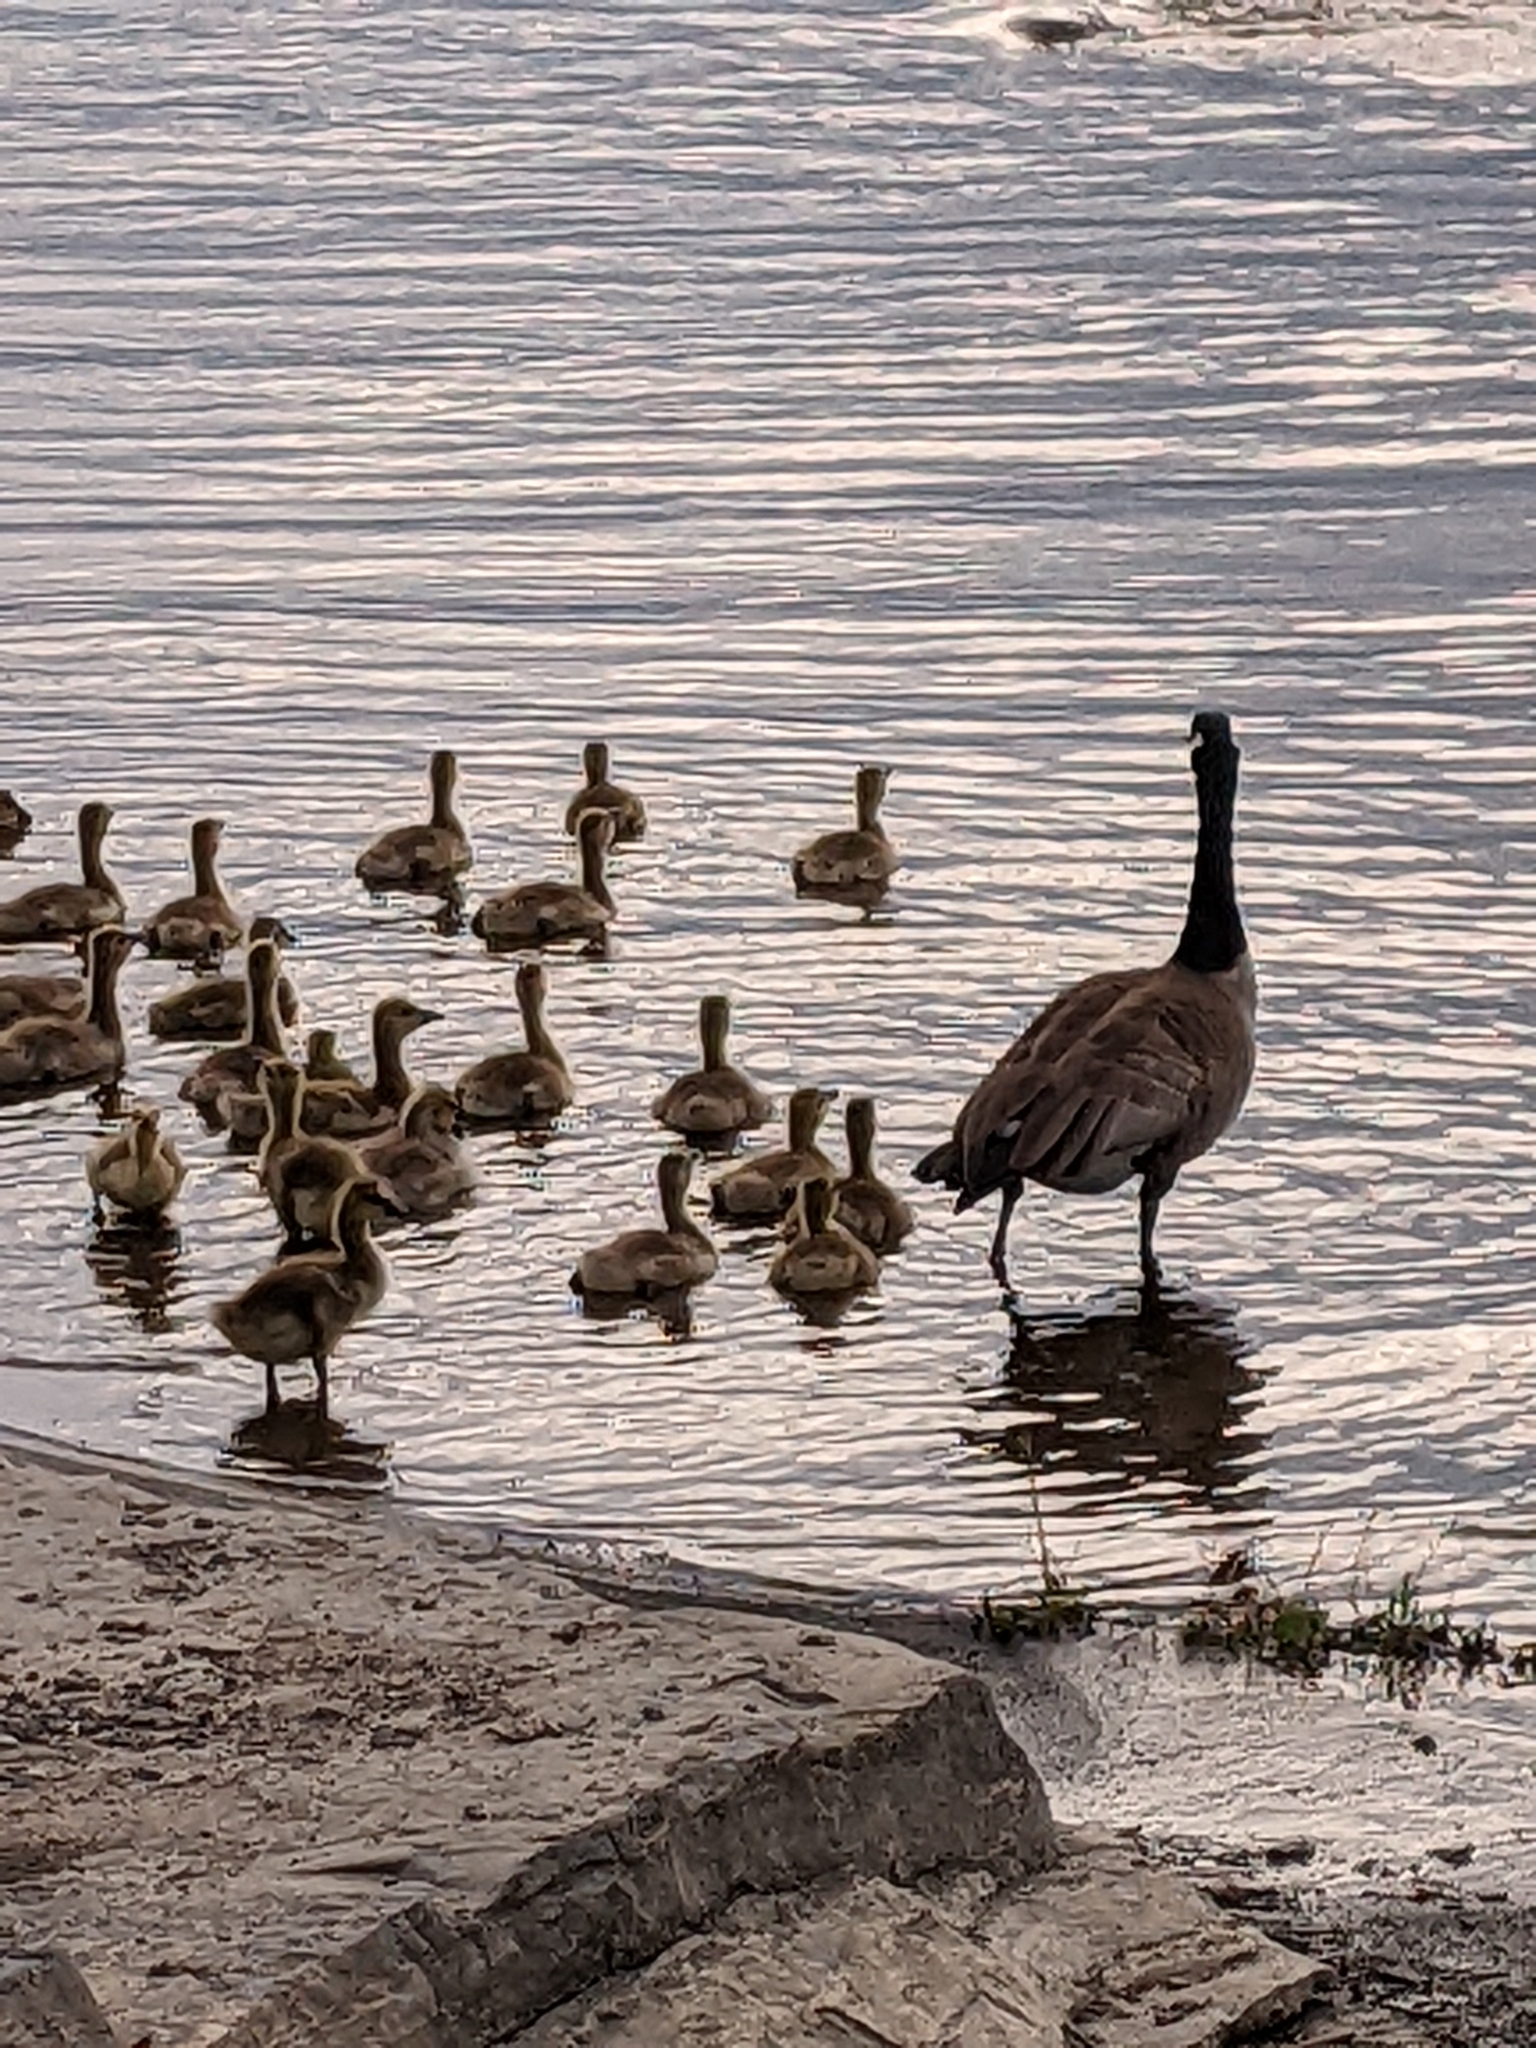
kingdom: Animalia
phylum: Chordata
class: Aves
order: Anseriformes
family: Anatidae
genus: Branta
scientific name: Branta canadensis
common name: Canada goose
